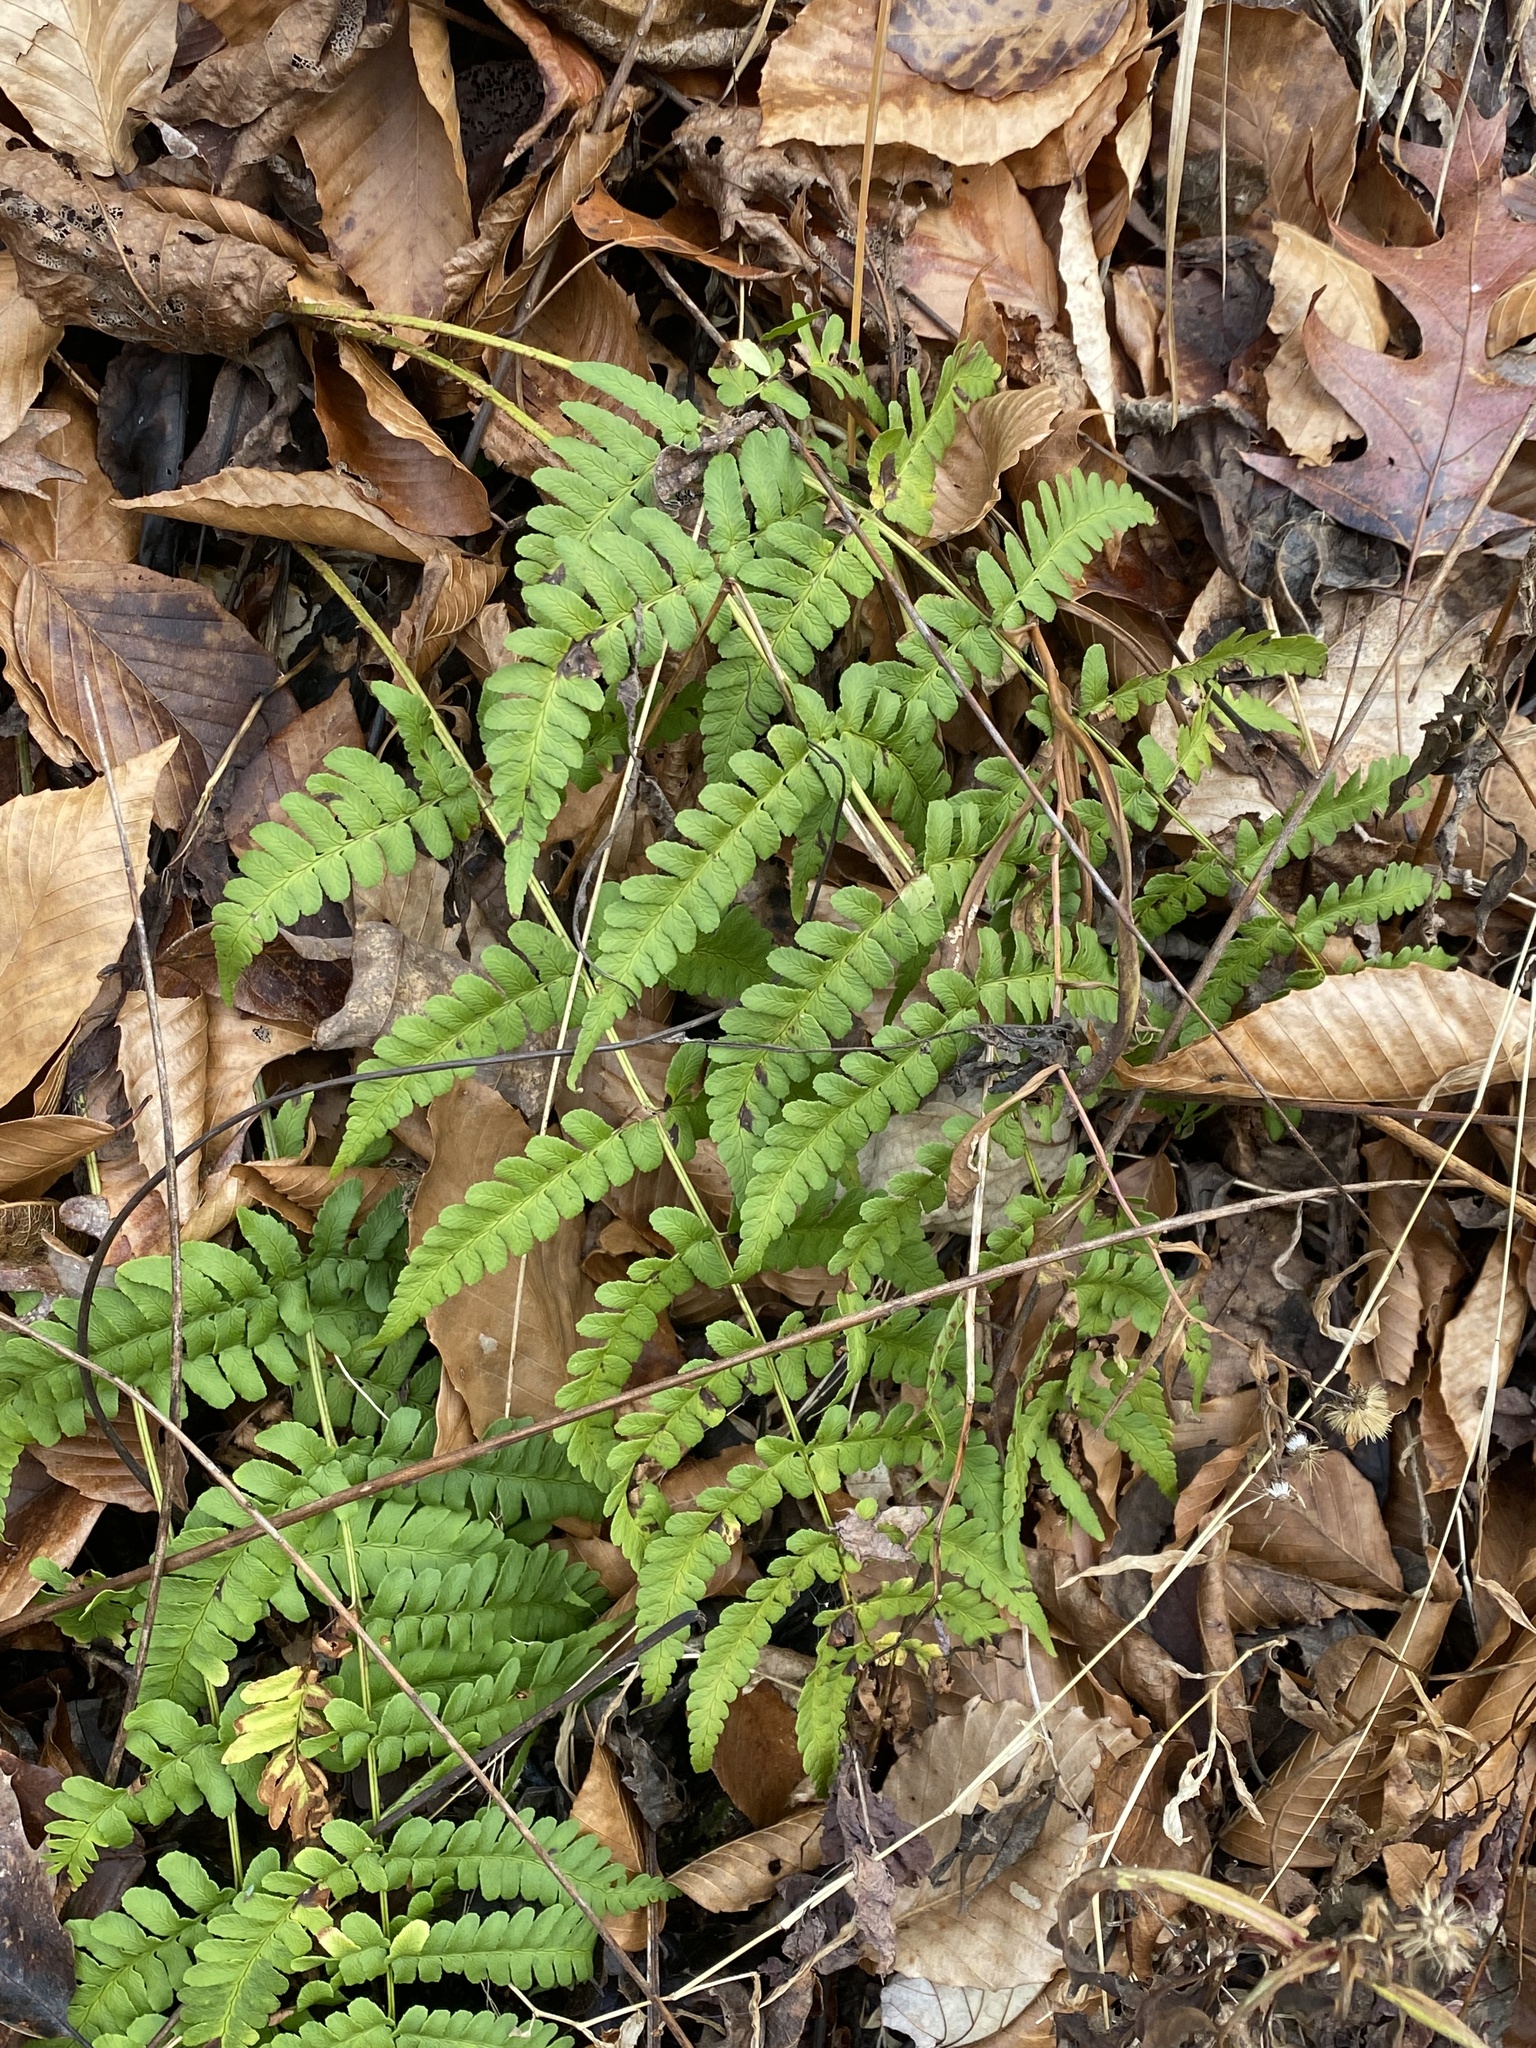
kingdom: Plantae
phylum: Tracheophyta
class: Polypodiopsida
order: Polypodiales
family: Dryopteridaceae
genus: Dryopteris
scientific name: Dryopteris marginalis
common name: Marginal wood fern
